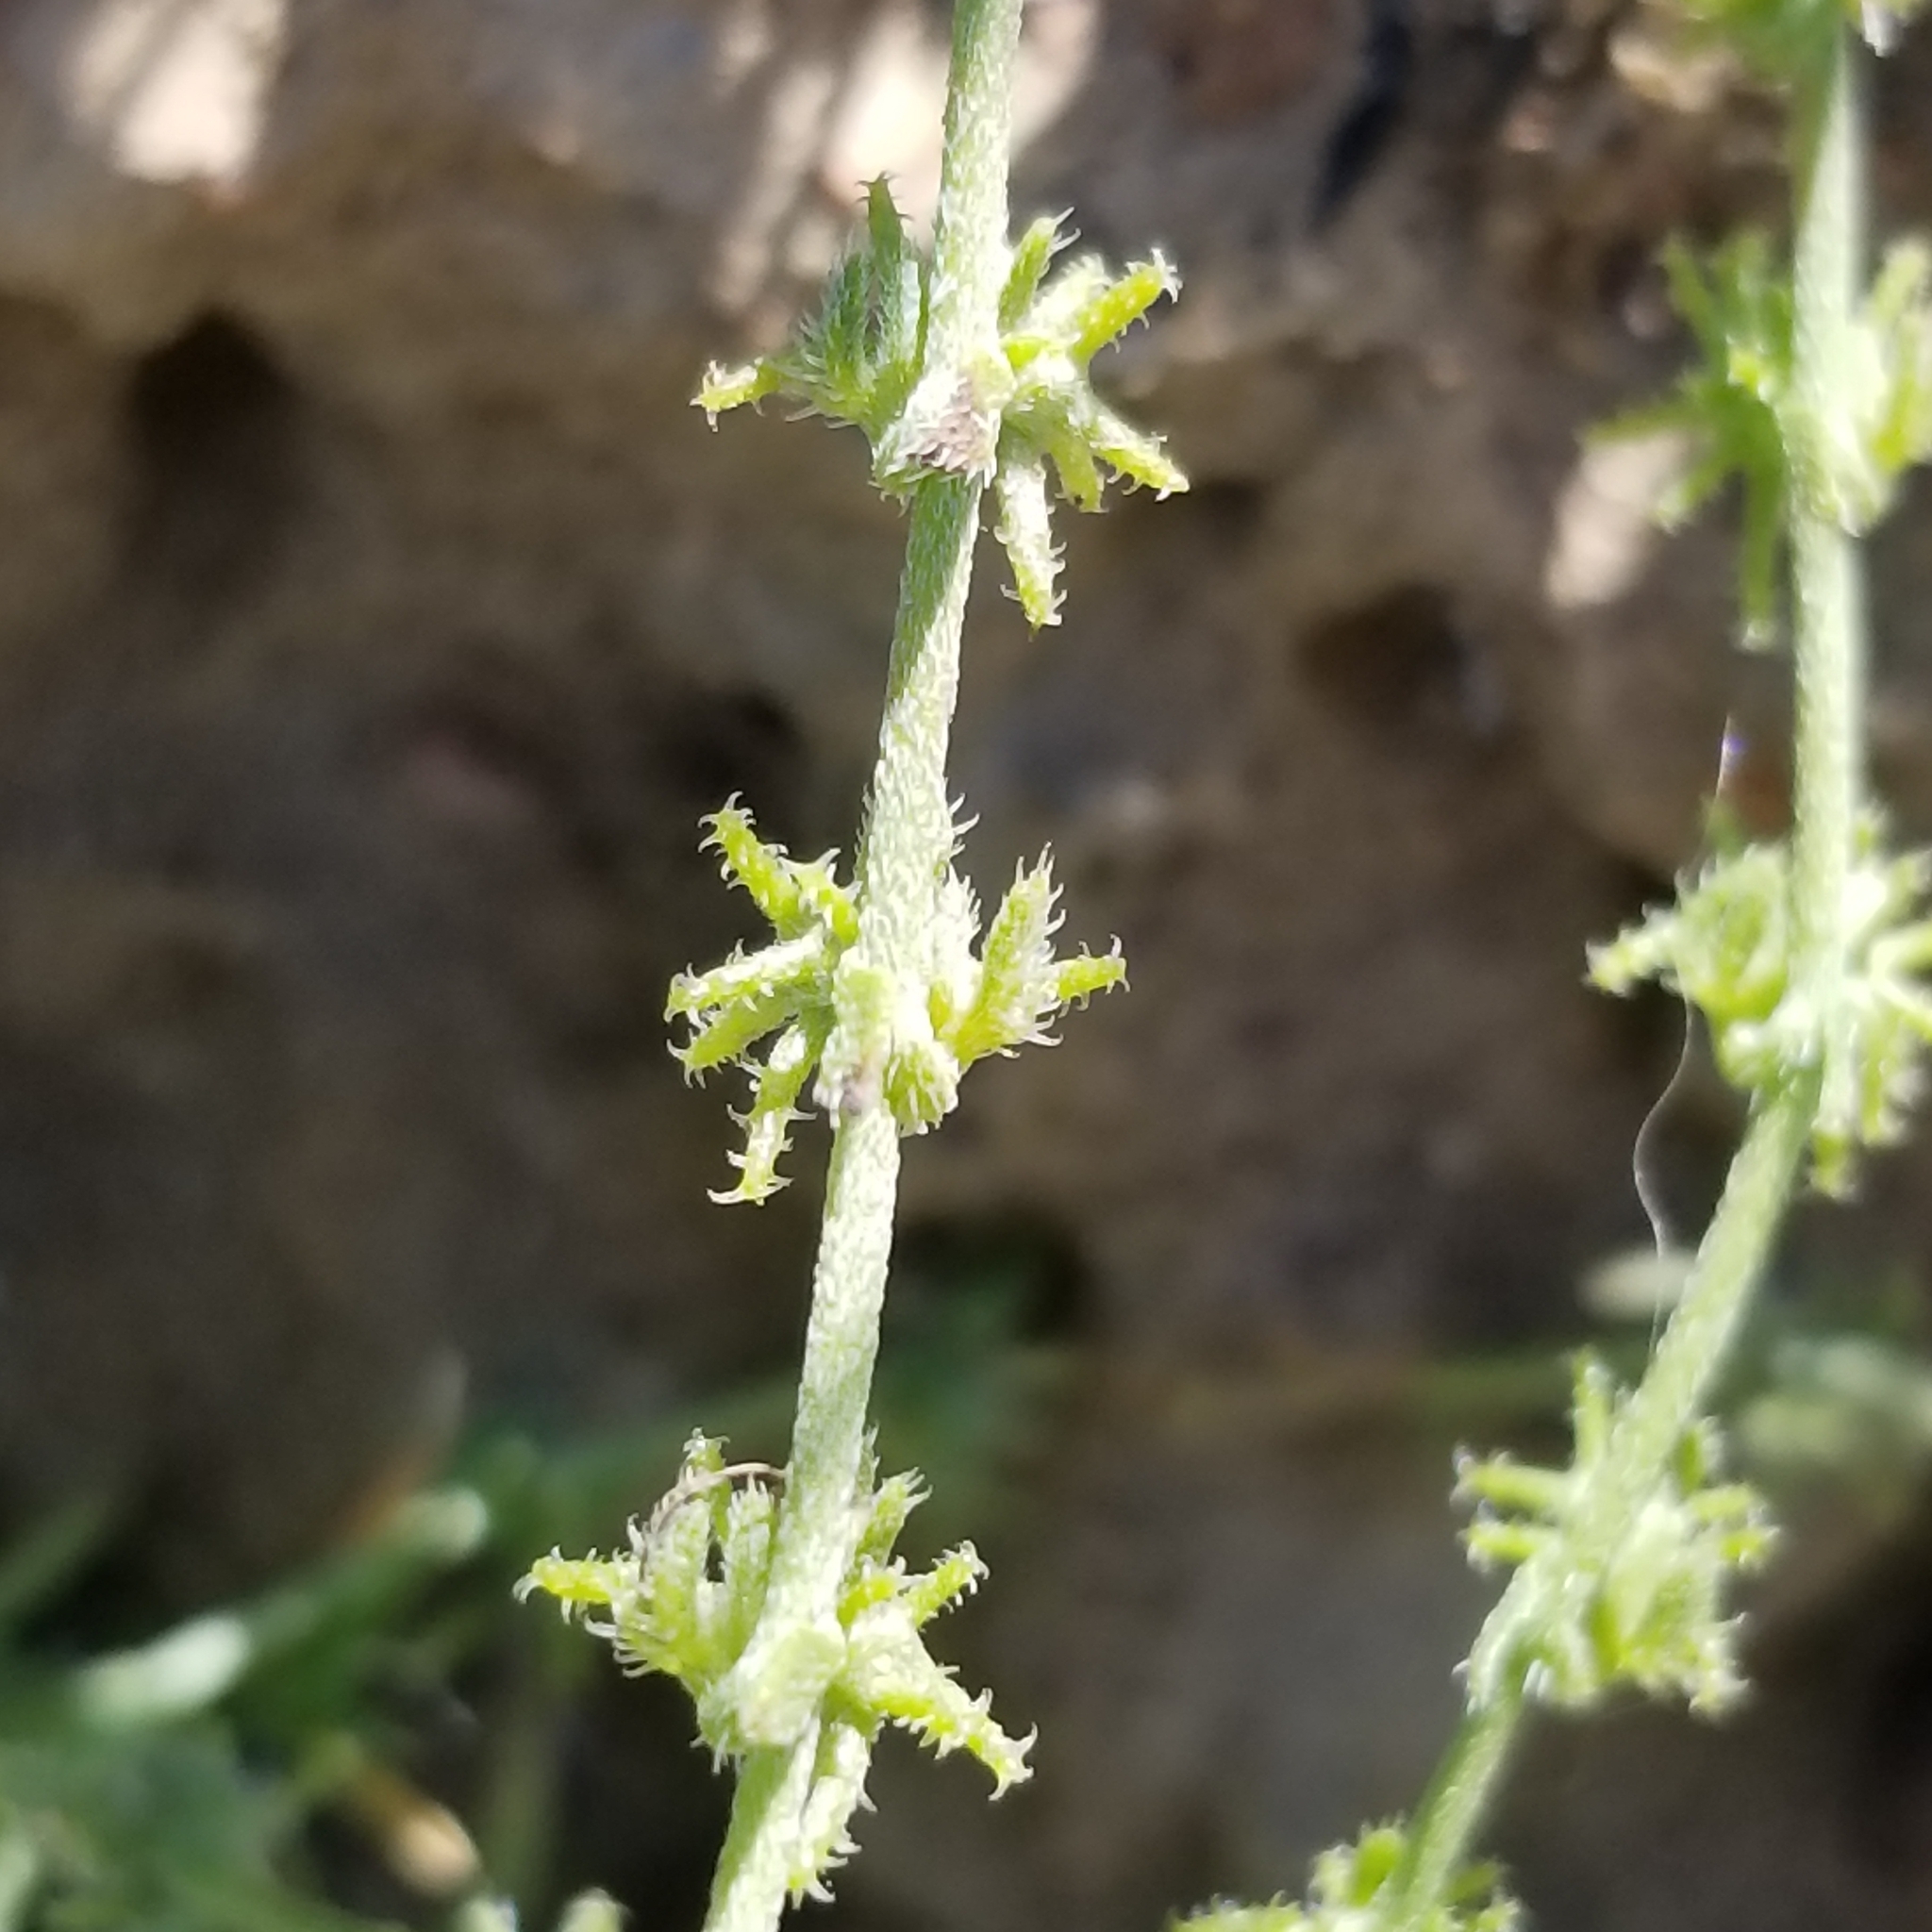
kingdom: Plantae
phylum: Tracheophyta
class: Magnoliopsida
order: Boraginales
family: Boraginaceae
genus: Harpagonella
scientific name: Harpagonella palmeri
